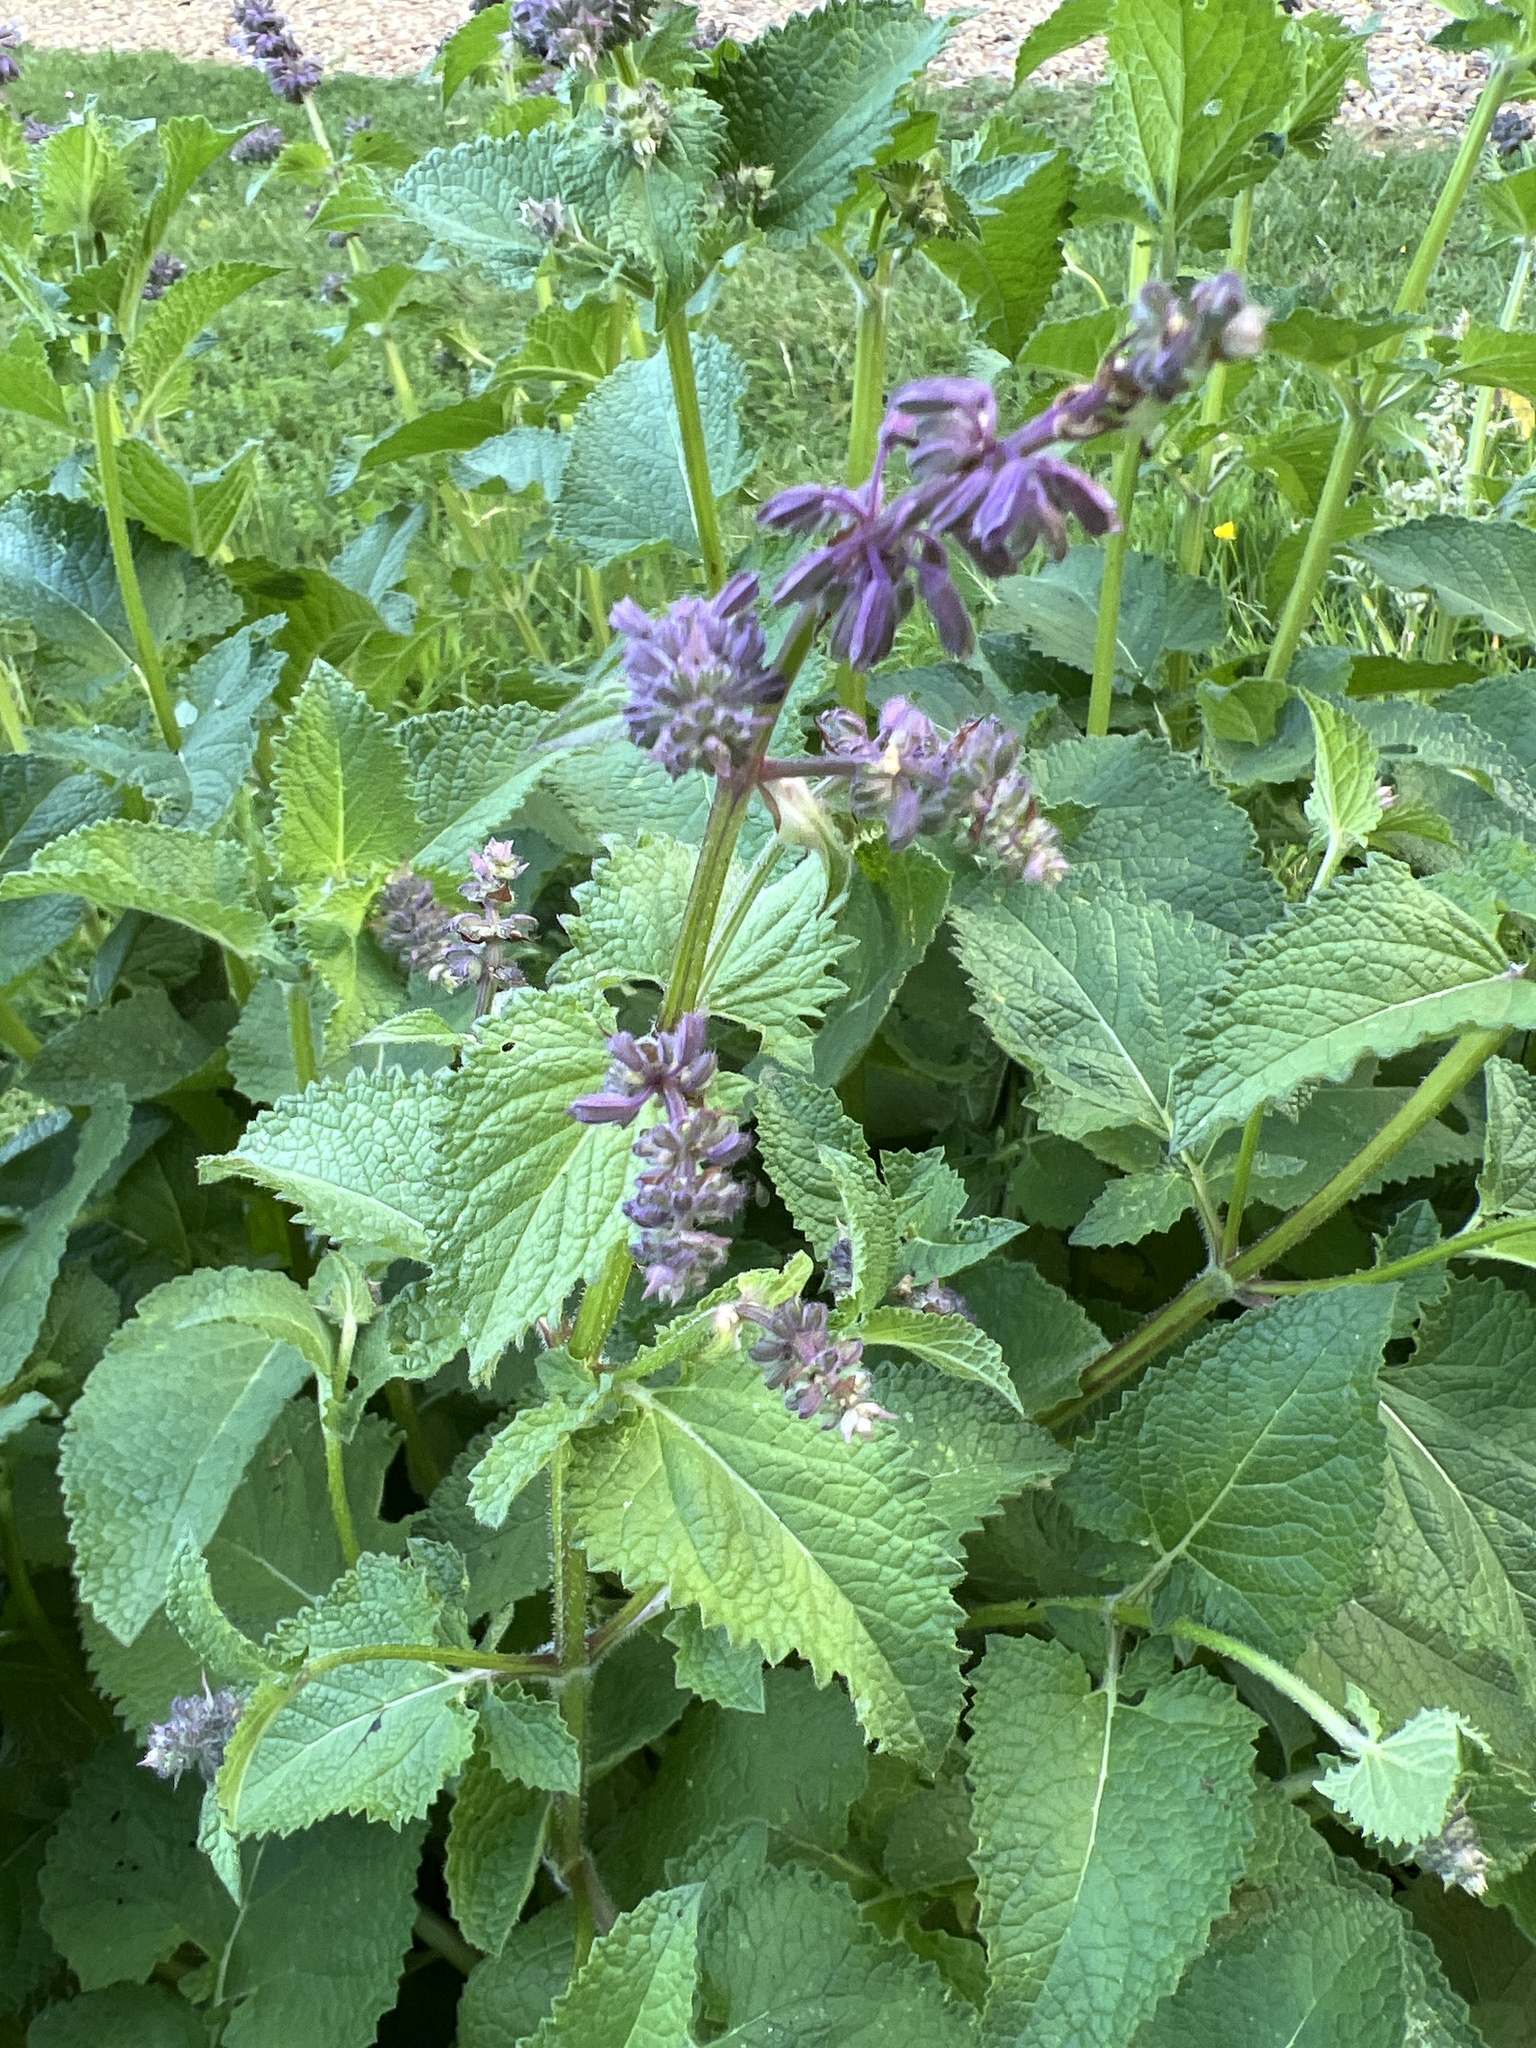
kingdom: Plantae
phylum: Tracheophyta
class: Magnoliopsida
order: Lamiales
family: Lamiaceae
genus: Salvia
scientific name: Salvia verticillata
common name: Whorled clary
